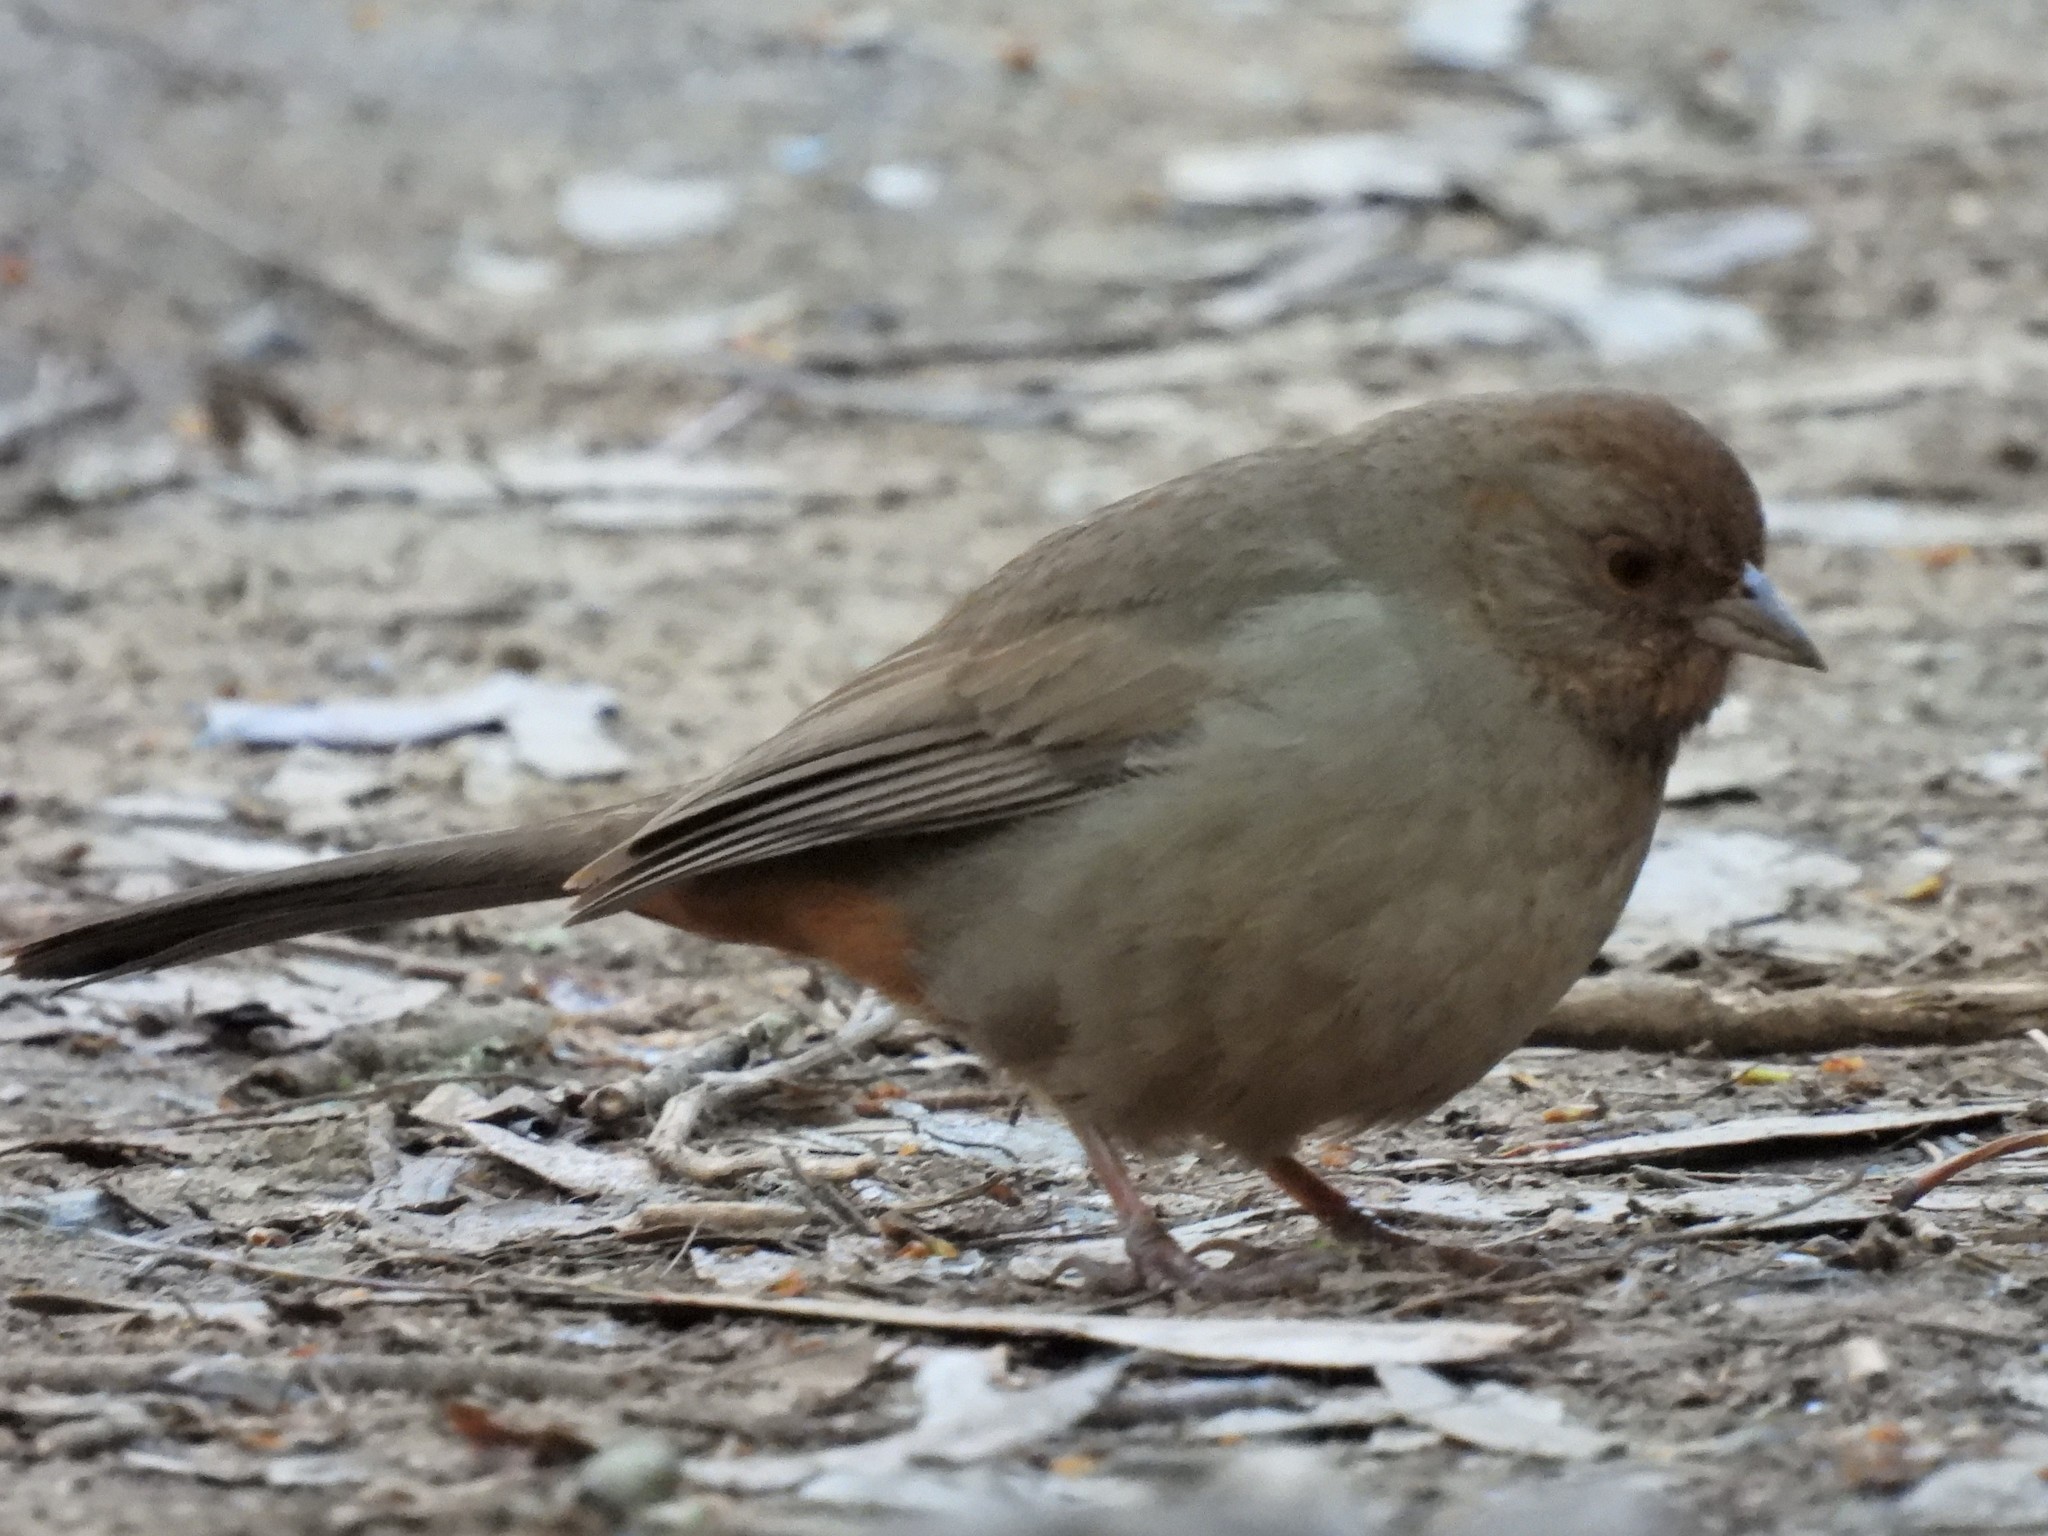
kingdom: Animalia
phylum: Chordata
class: Aves
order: Passeriformes
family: Passerellidae
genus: Melozone
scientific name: Melozone crissalis
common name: California towhee
